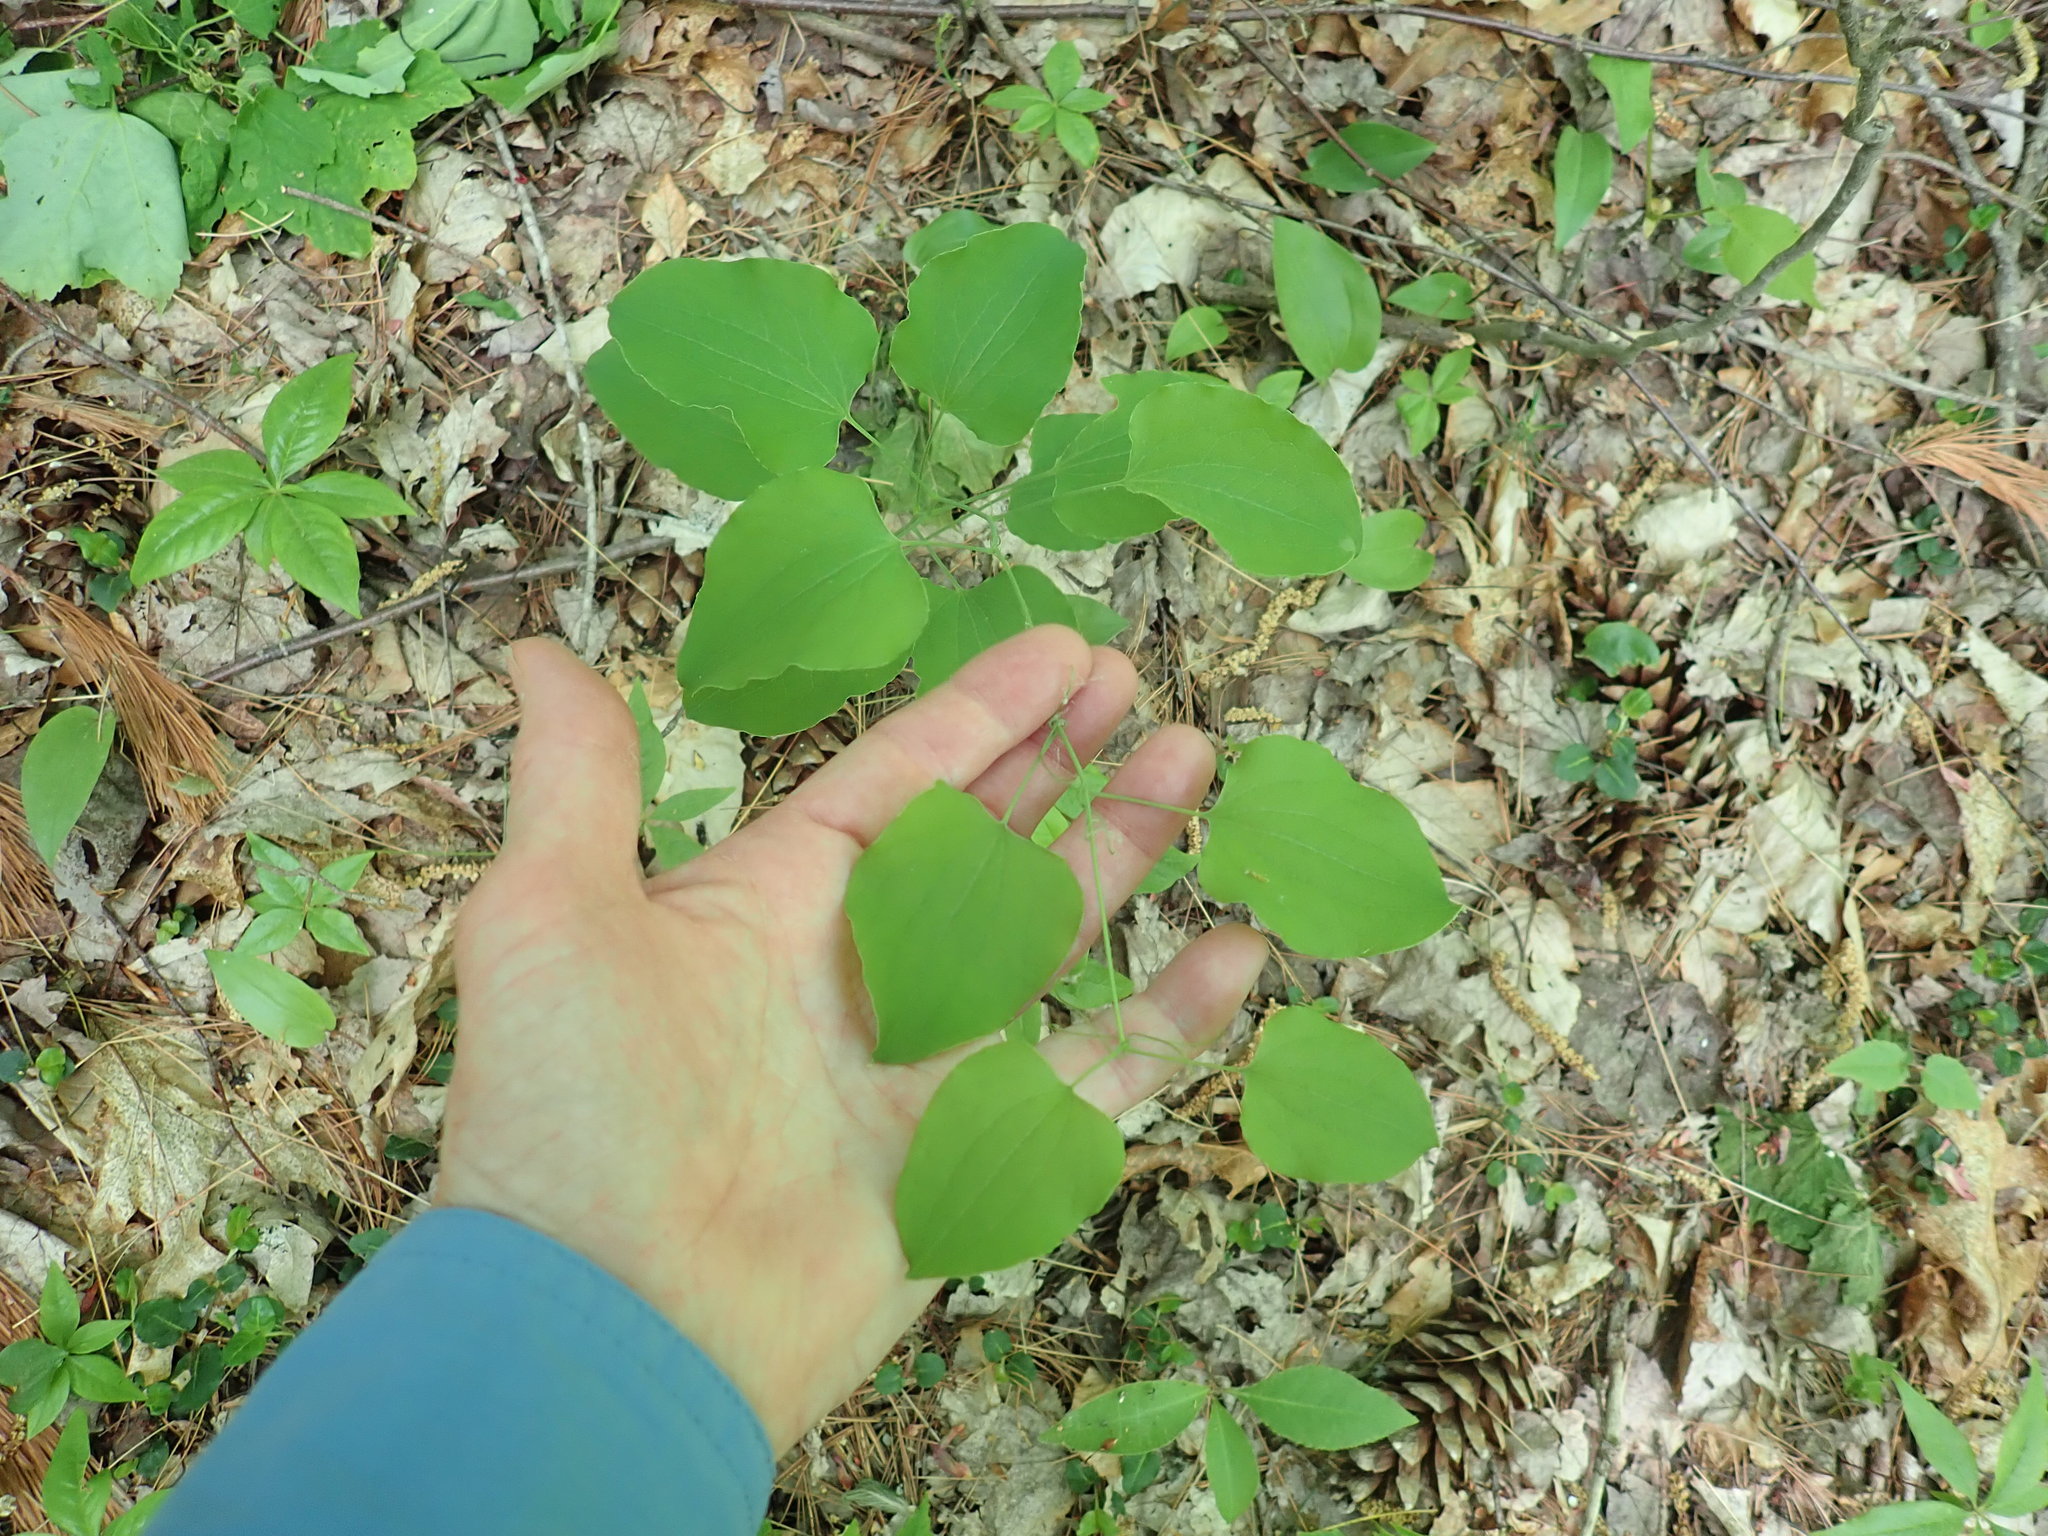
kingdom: Plantae
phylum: Tracheophyta
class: Liliopsida
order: Liliales
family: Smilacaceae
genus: Smilax
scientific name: Smilax herbacea
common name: Jacob's-ladder
